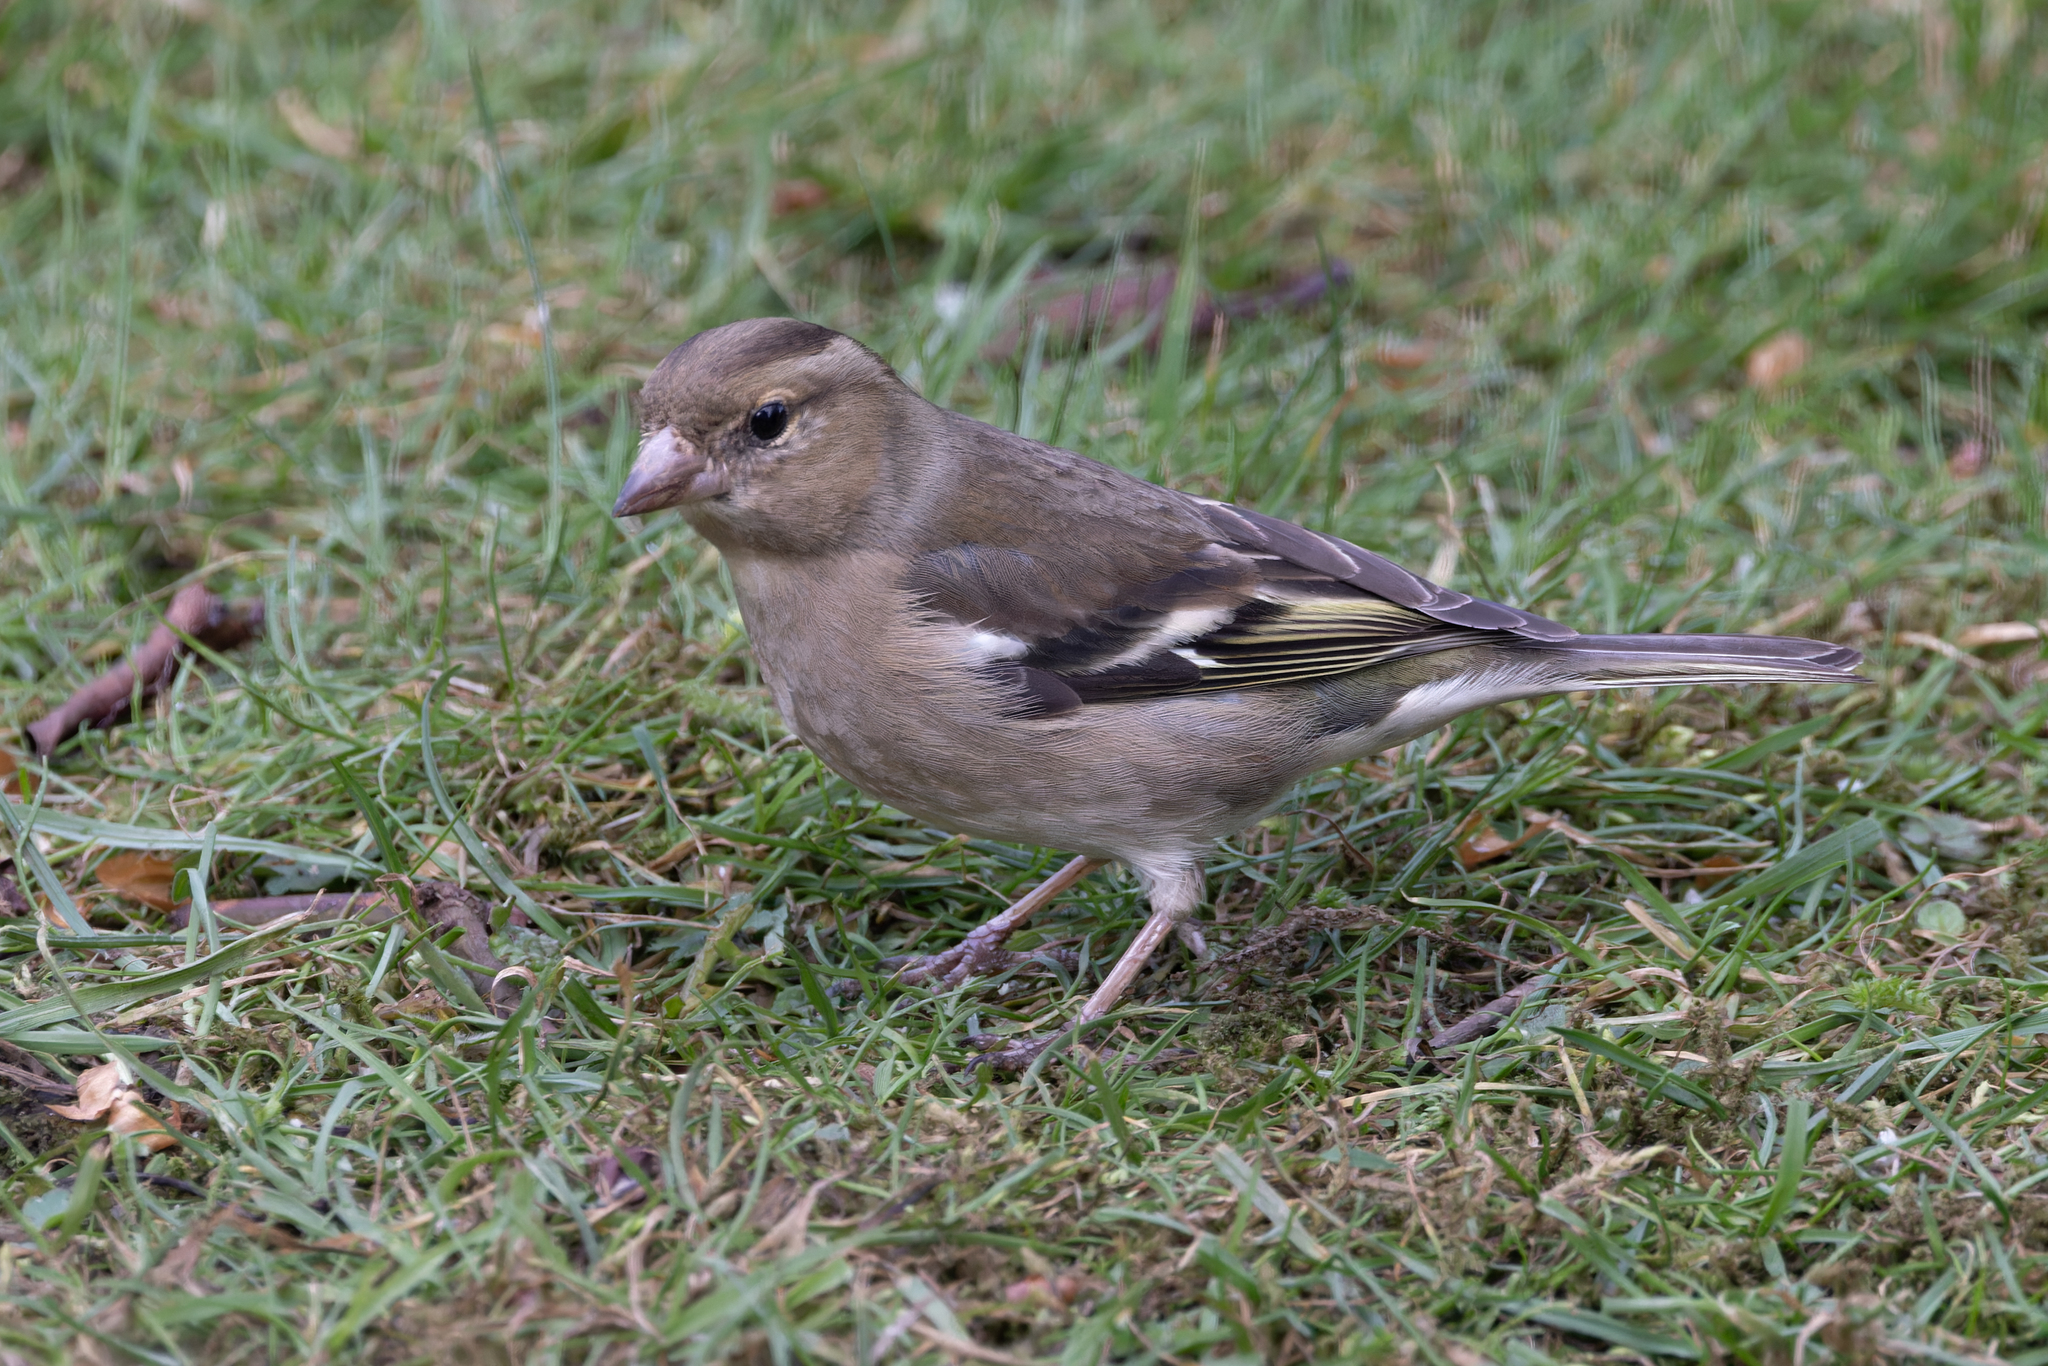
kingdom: Animalia
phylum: Chordata
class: Aves
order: Passeriformes
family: Fringillidae
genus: Fringilla
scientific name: Fringilla coelebs
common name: Common chaffinch
